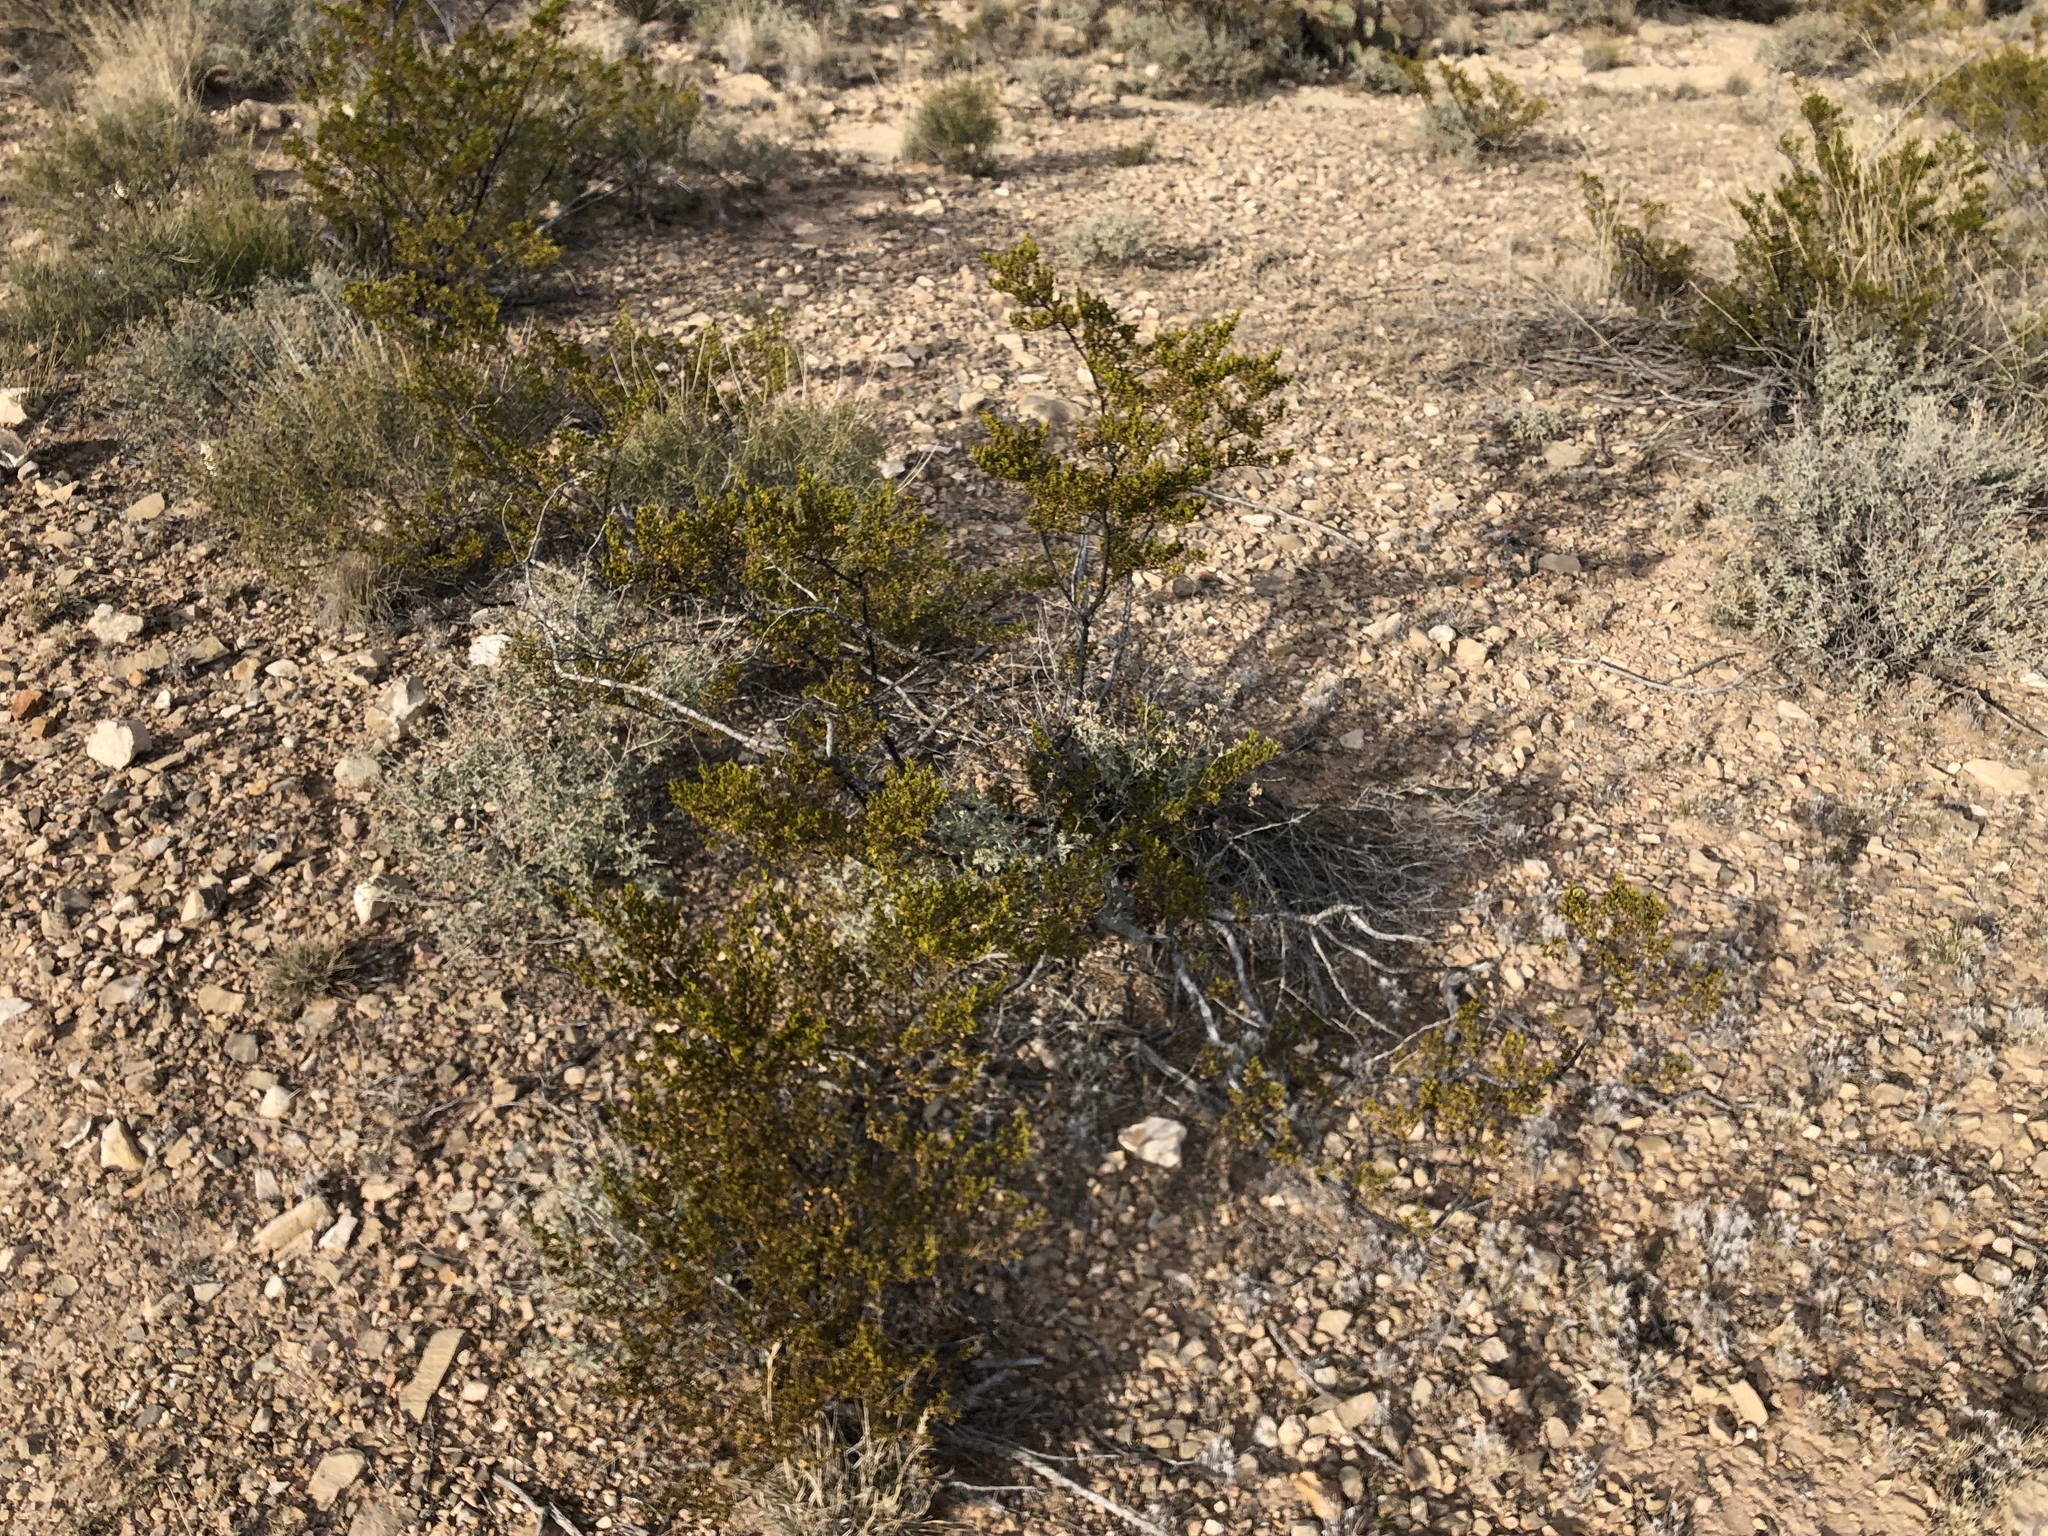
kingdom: Plantae
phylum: Tracheophyta
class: Magnoliopsida
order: Zygophyllales
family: Zygophyllaceae
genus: Larrea
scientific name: Larrea tridentata
